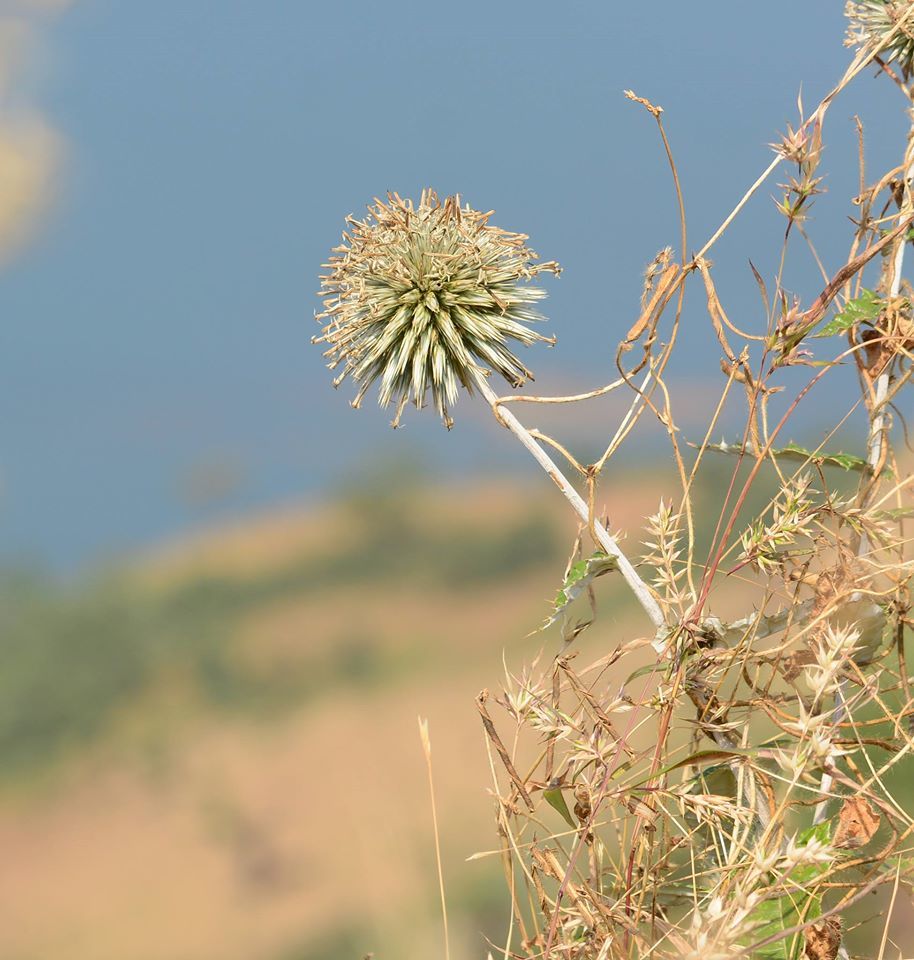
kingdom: Plantae
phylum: Tracheophyta
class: Magnoliopsida
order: Asterales
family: Asteraceae
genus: Echinops
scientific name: Echinops sahyadricus
